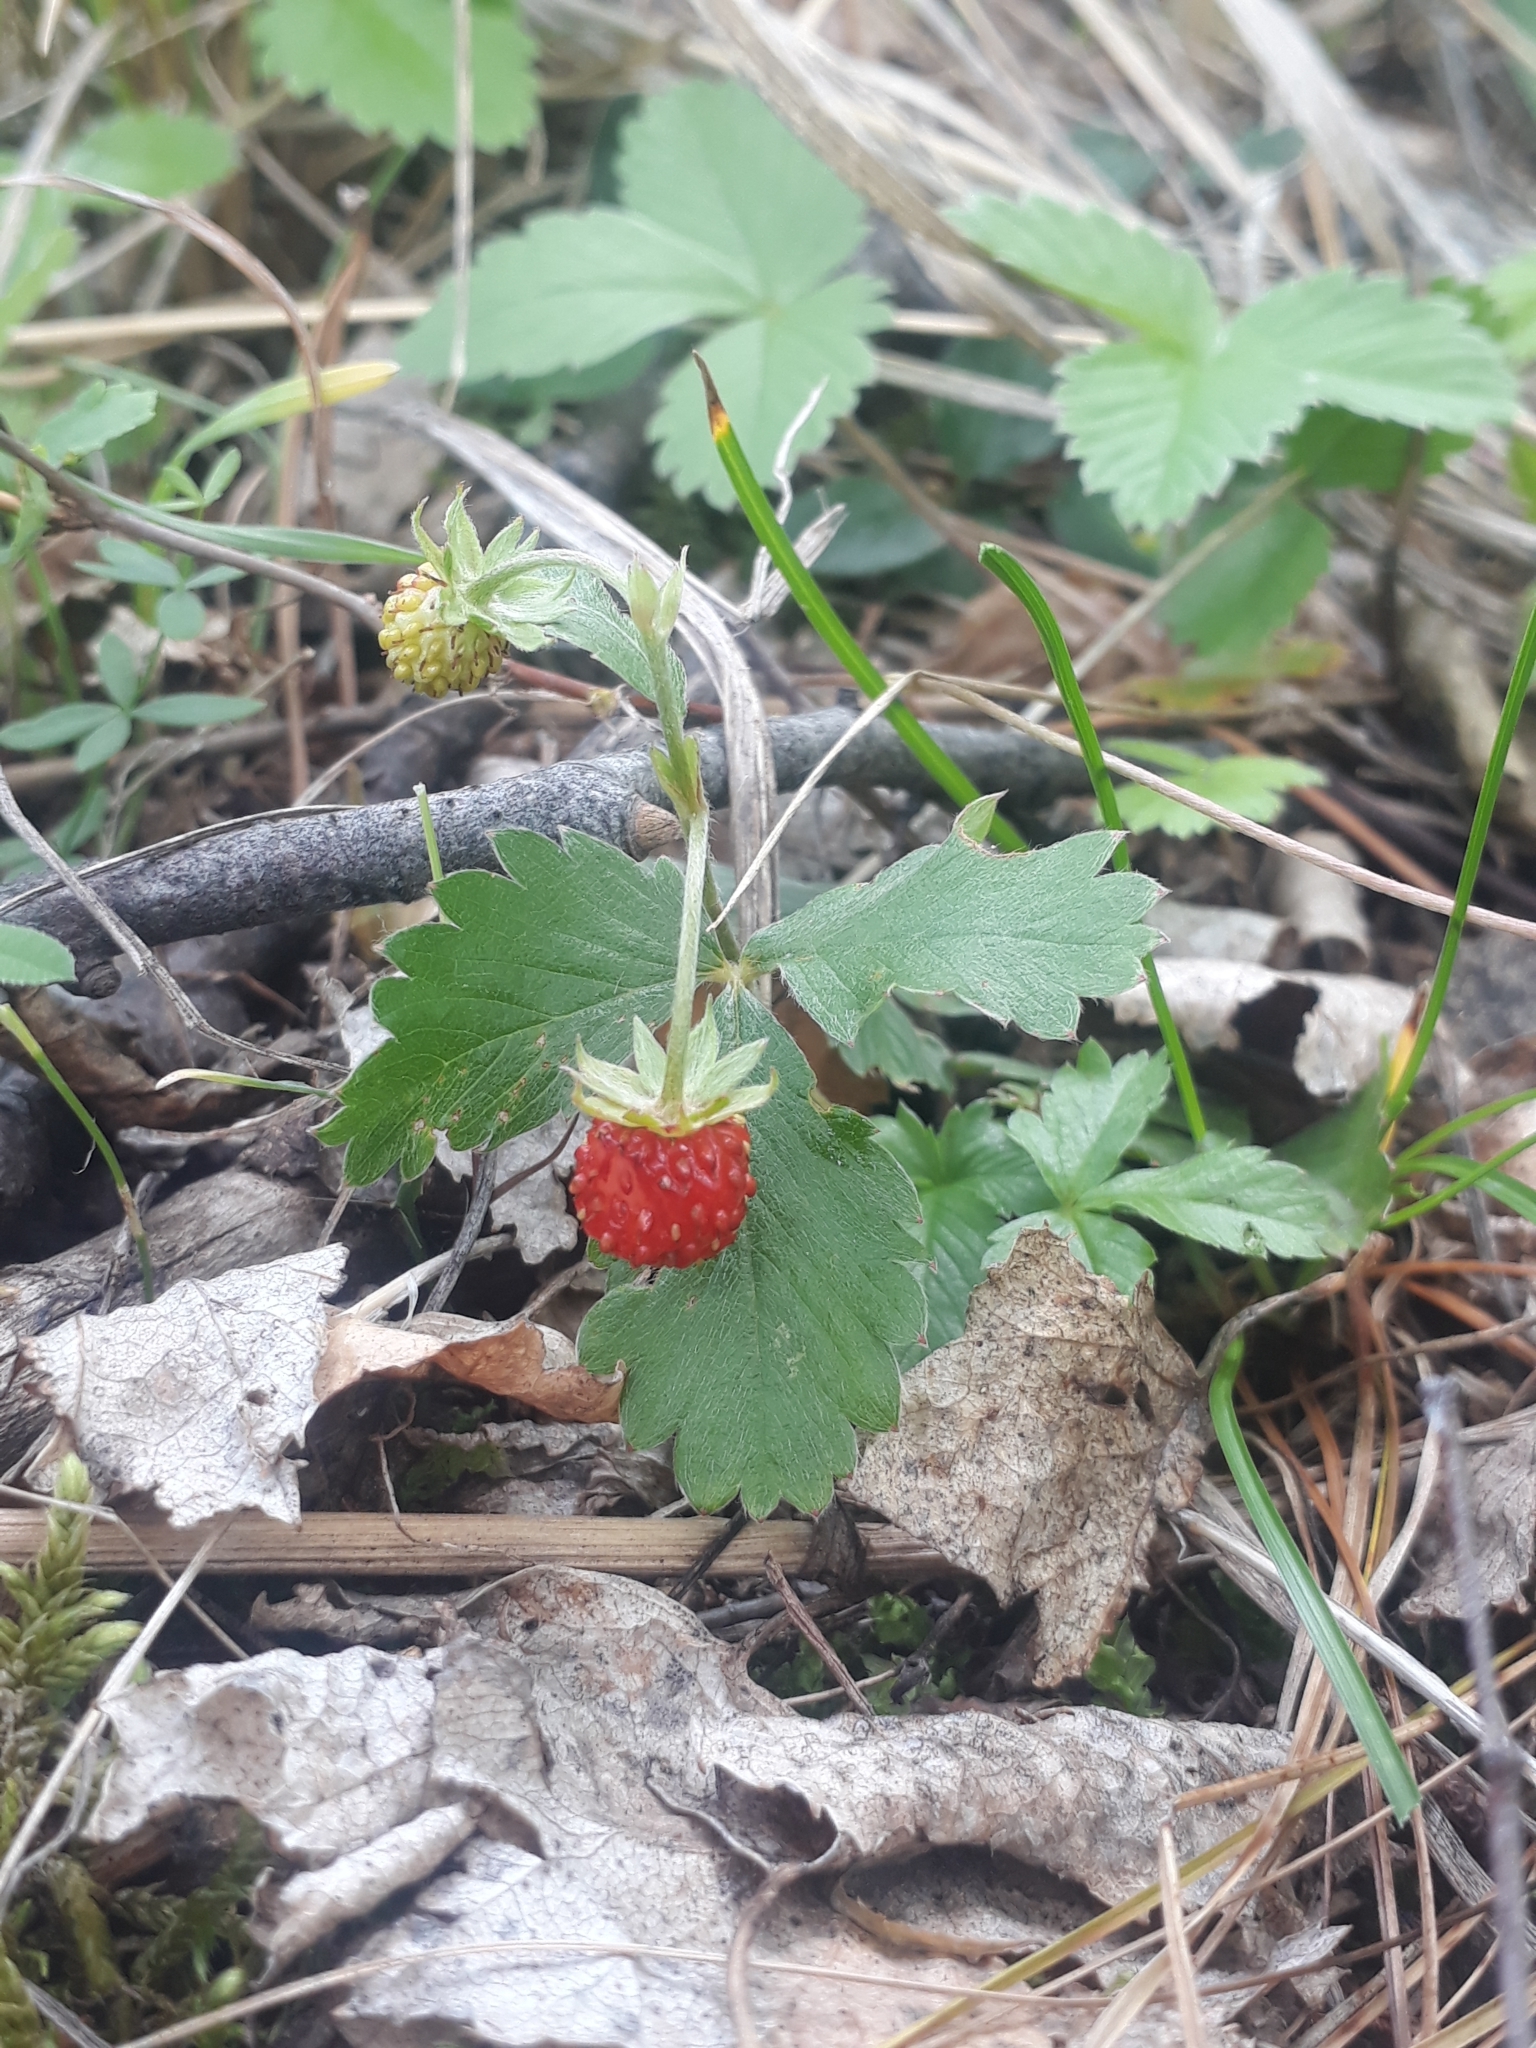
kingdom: Plantae
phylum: Tracheophyta
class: Magnoliopsida
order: Rosales
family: Rosaceae
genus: Fragaria
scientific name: Fragaria vesca
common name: Wild strawberry
